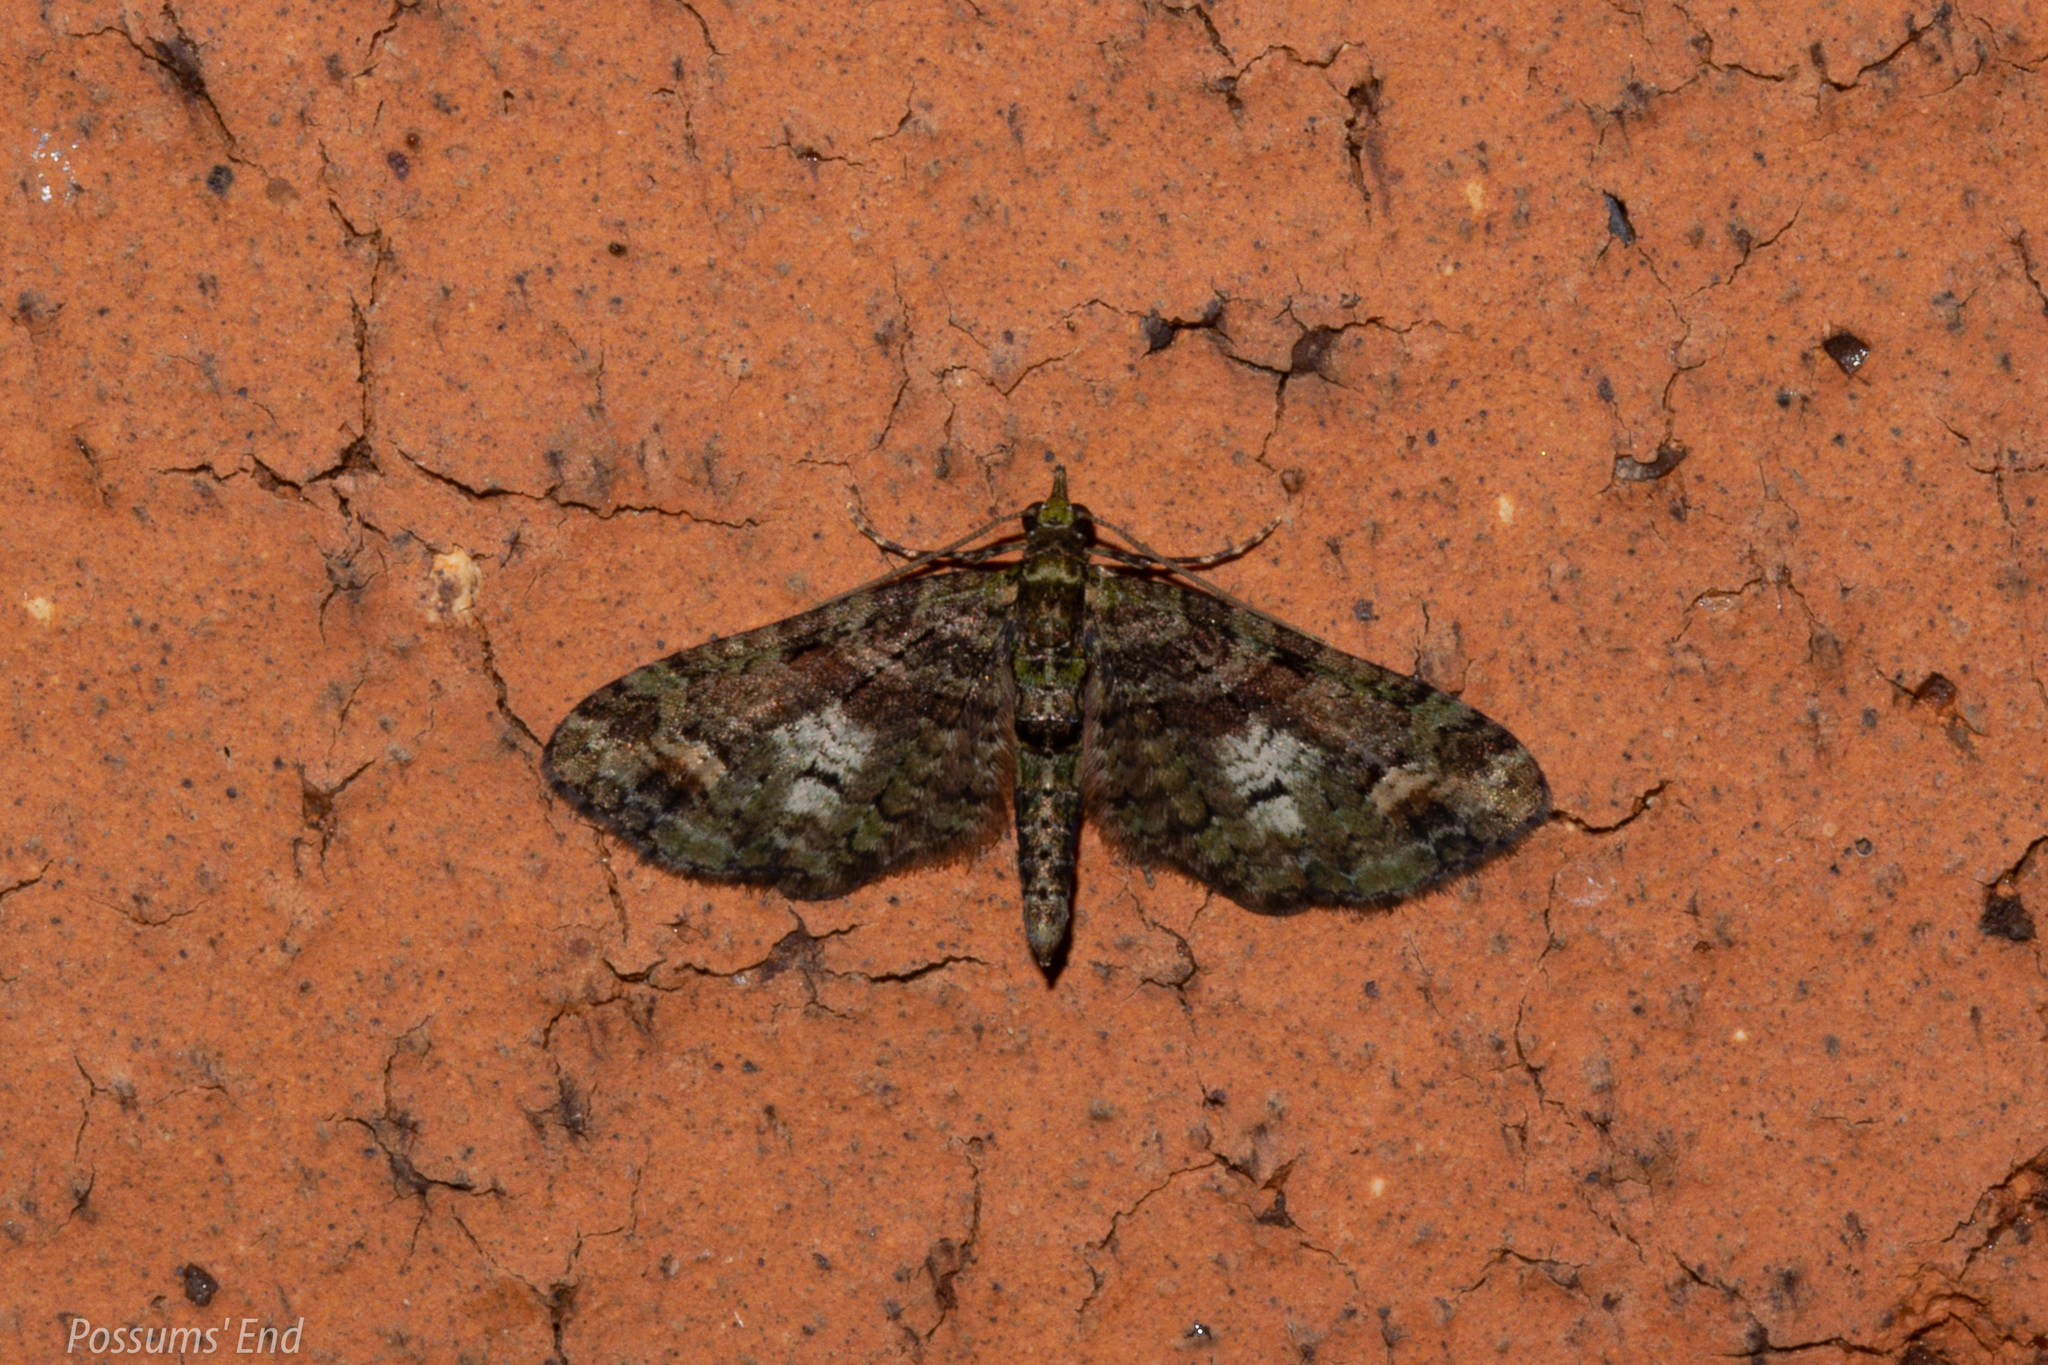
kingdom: Animalia
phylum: Arthropoda
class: Insecta
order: Lepidoptera
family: Geometridae
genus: Idaea
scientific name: Idaea mutanda
